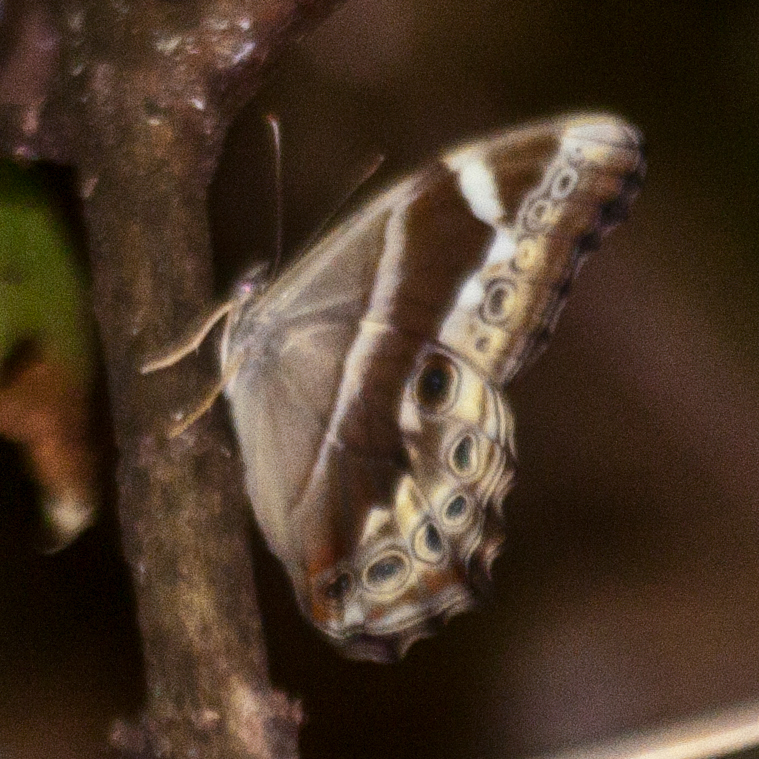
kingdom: Animalia
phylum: Arthropoda
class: Insecta
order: Lepidoptera
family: Nymphalidae
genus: Lethe
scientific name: Lethe mekara
